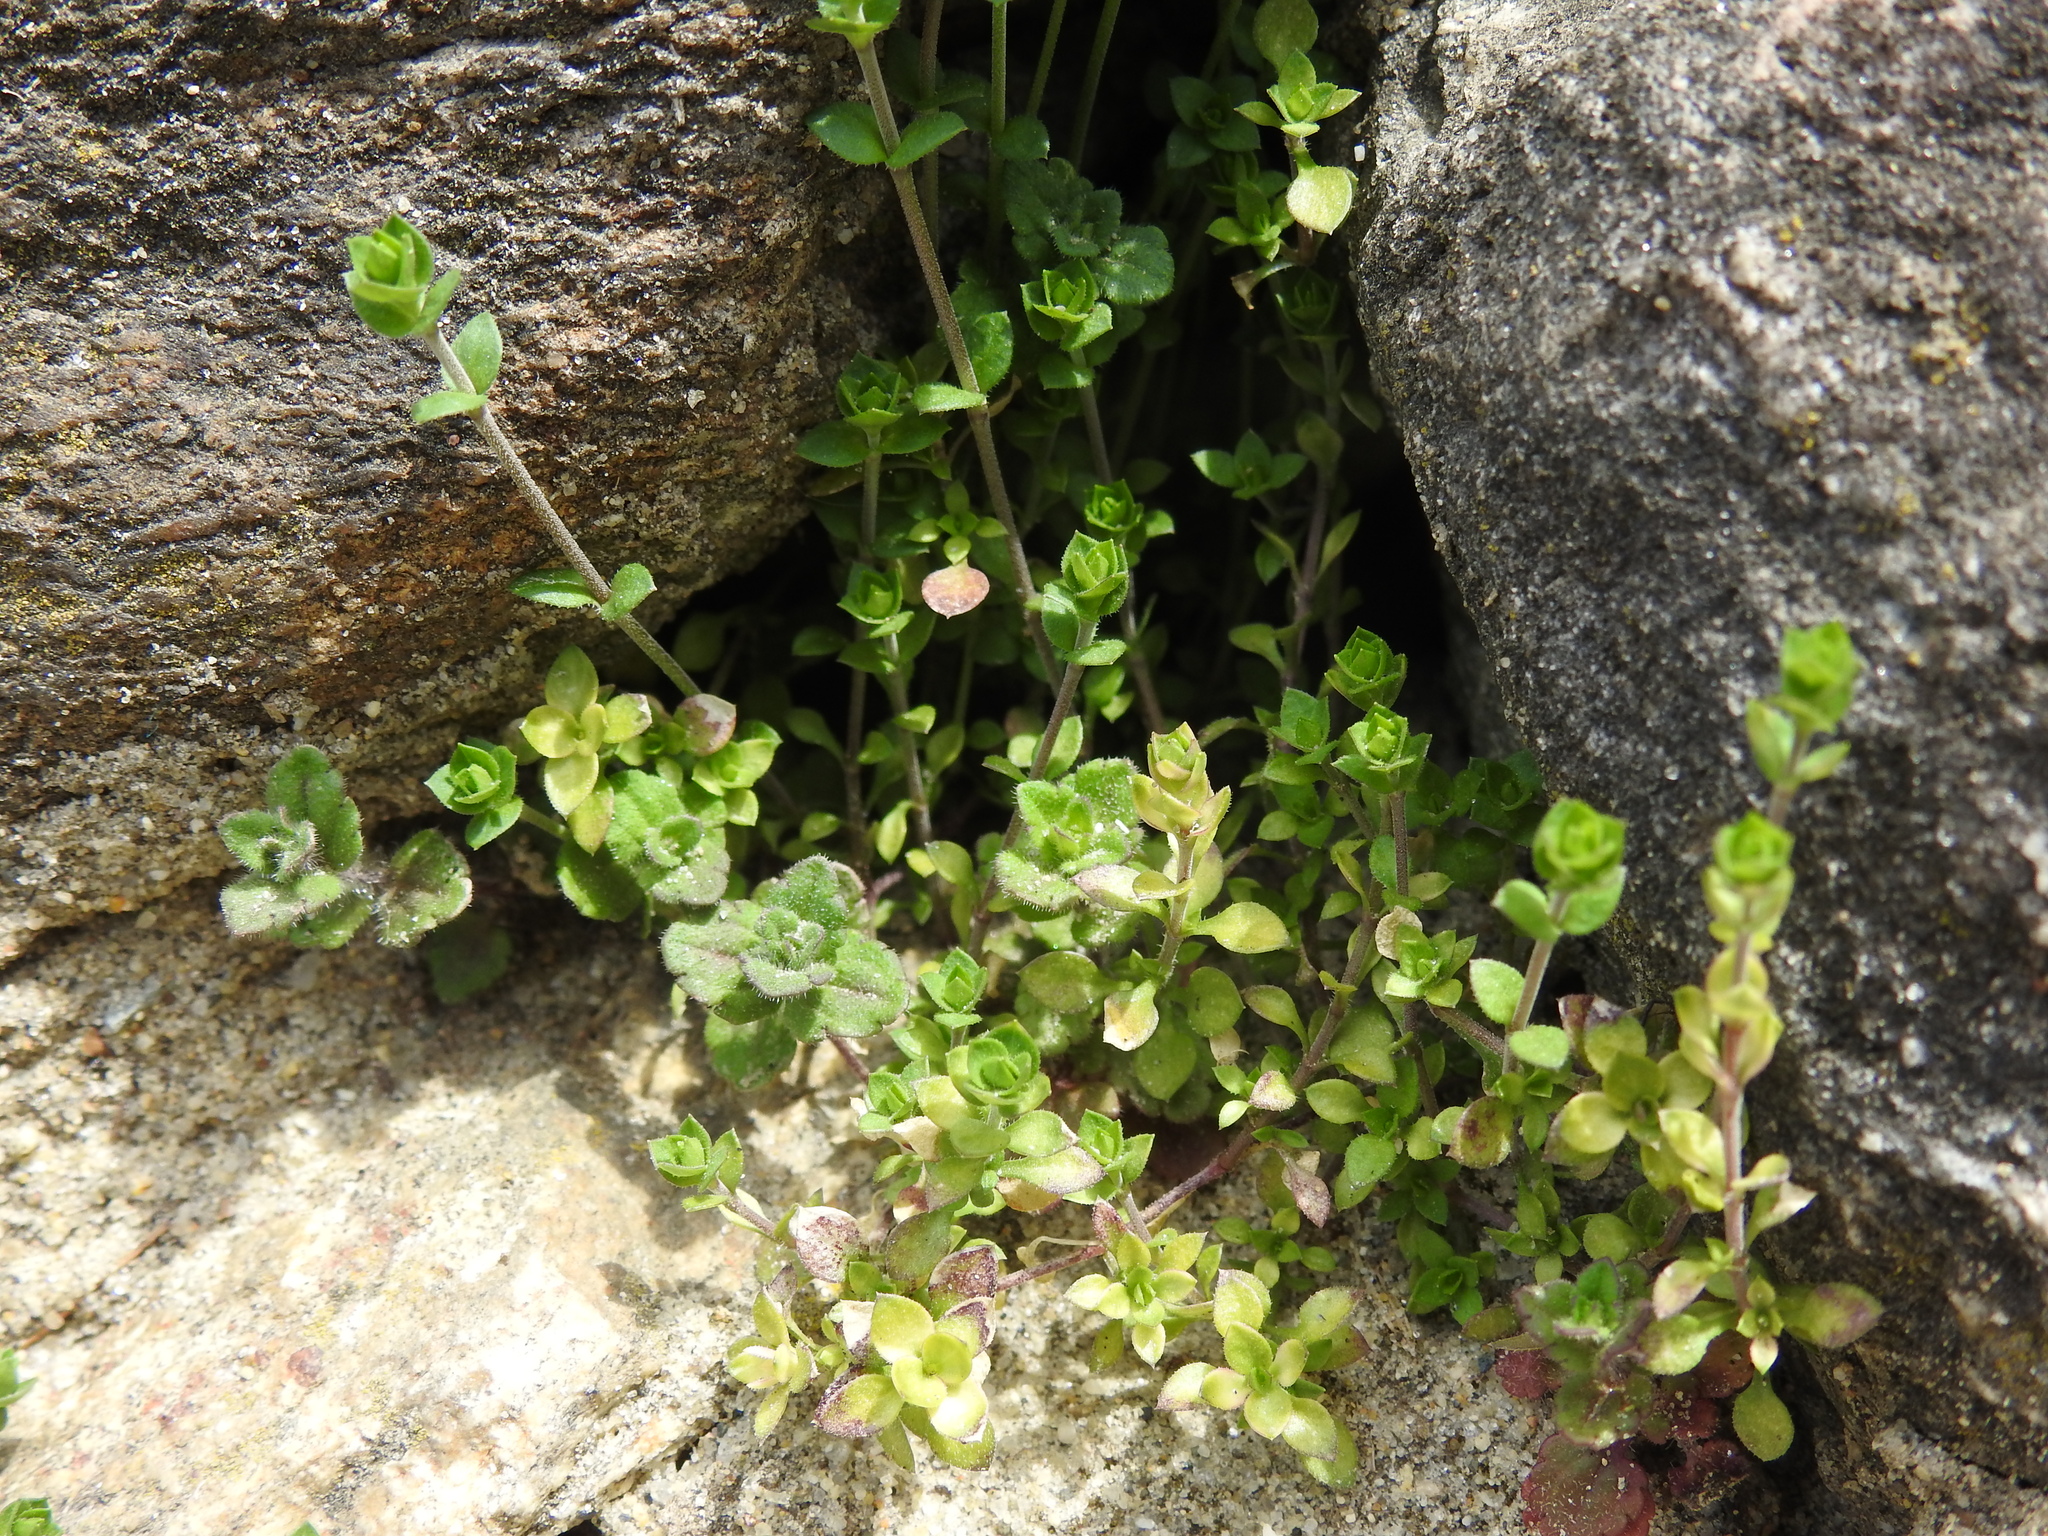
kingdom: Plantae
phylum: Tracheophyta
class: Magnoliopsida
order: Lamiales
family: Plantaginaceae
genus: Veronica
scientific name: Veronica arvensis
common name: Corn speedwell
